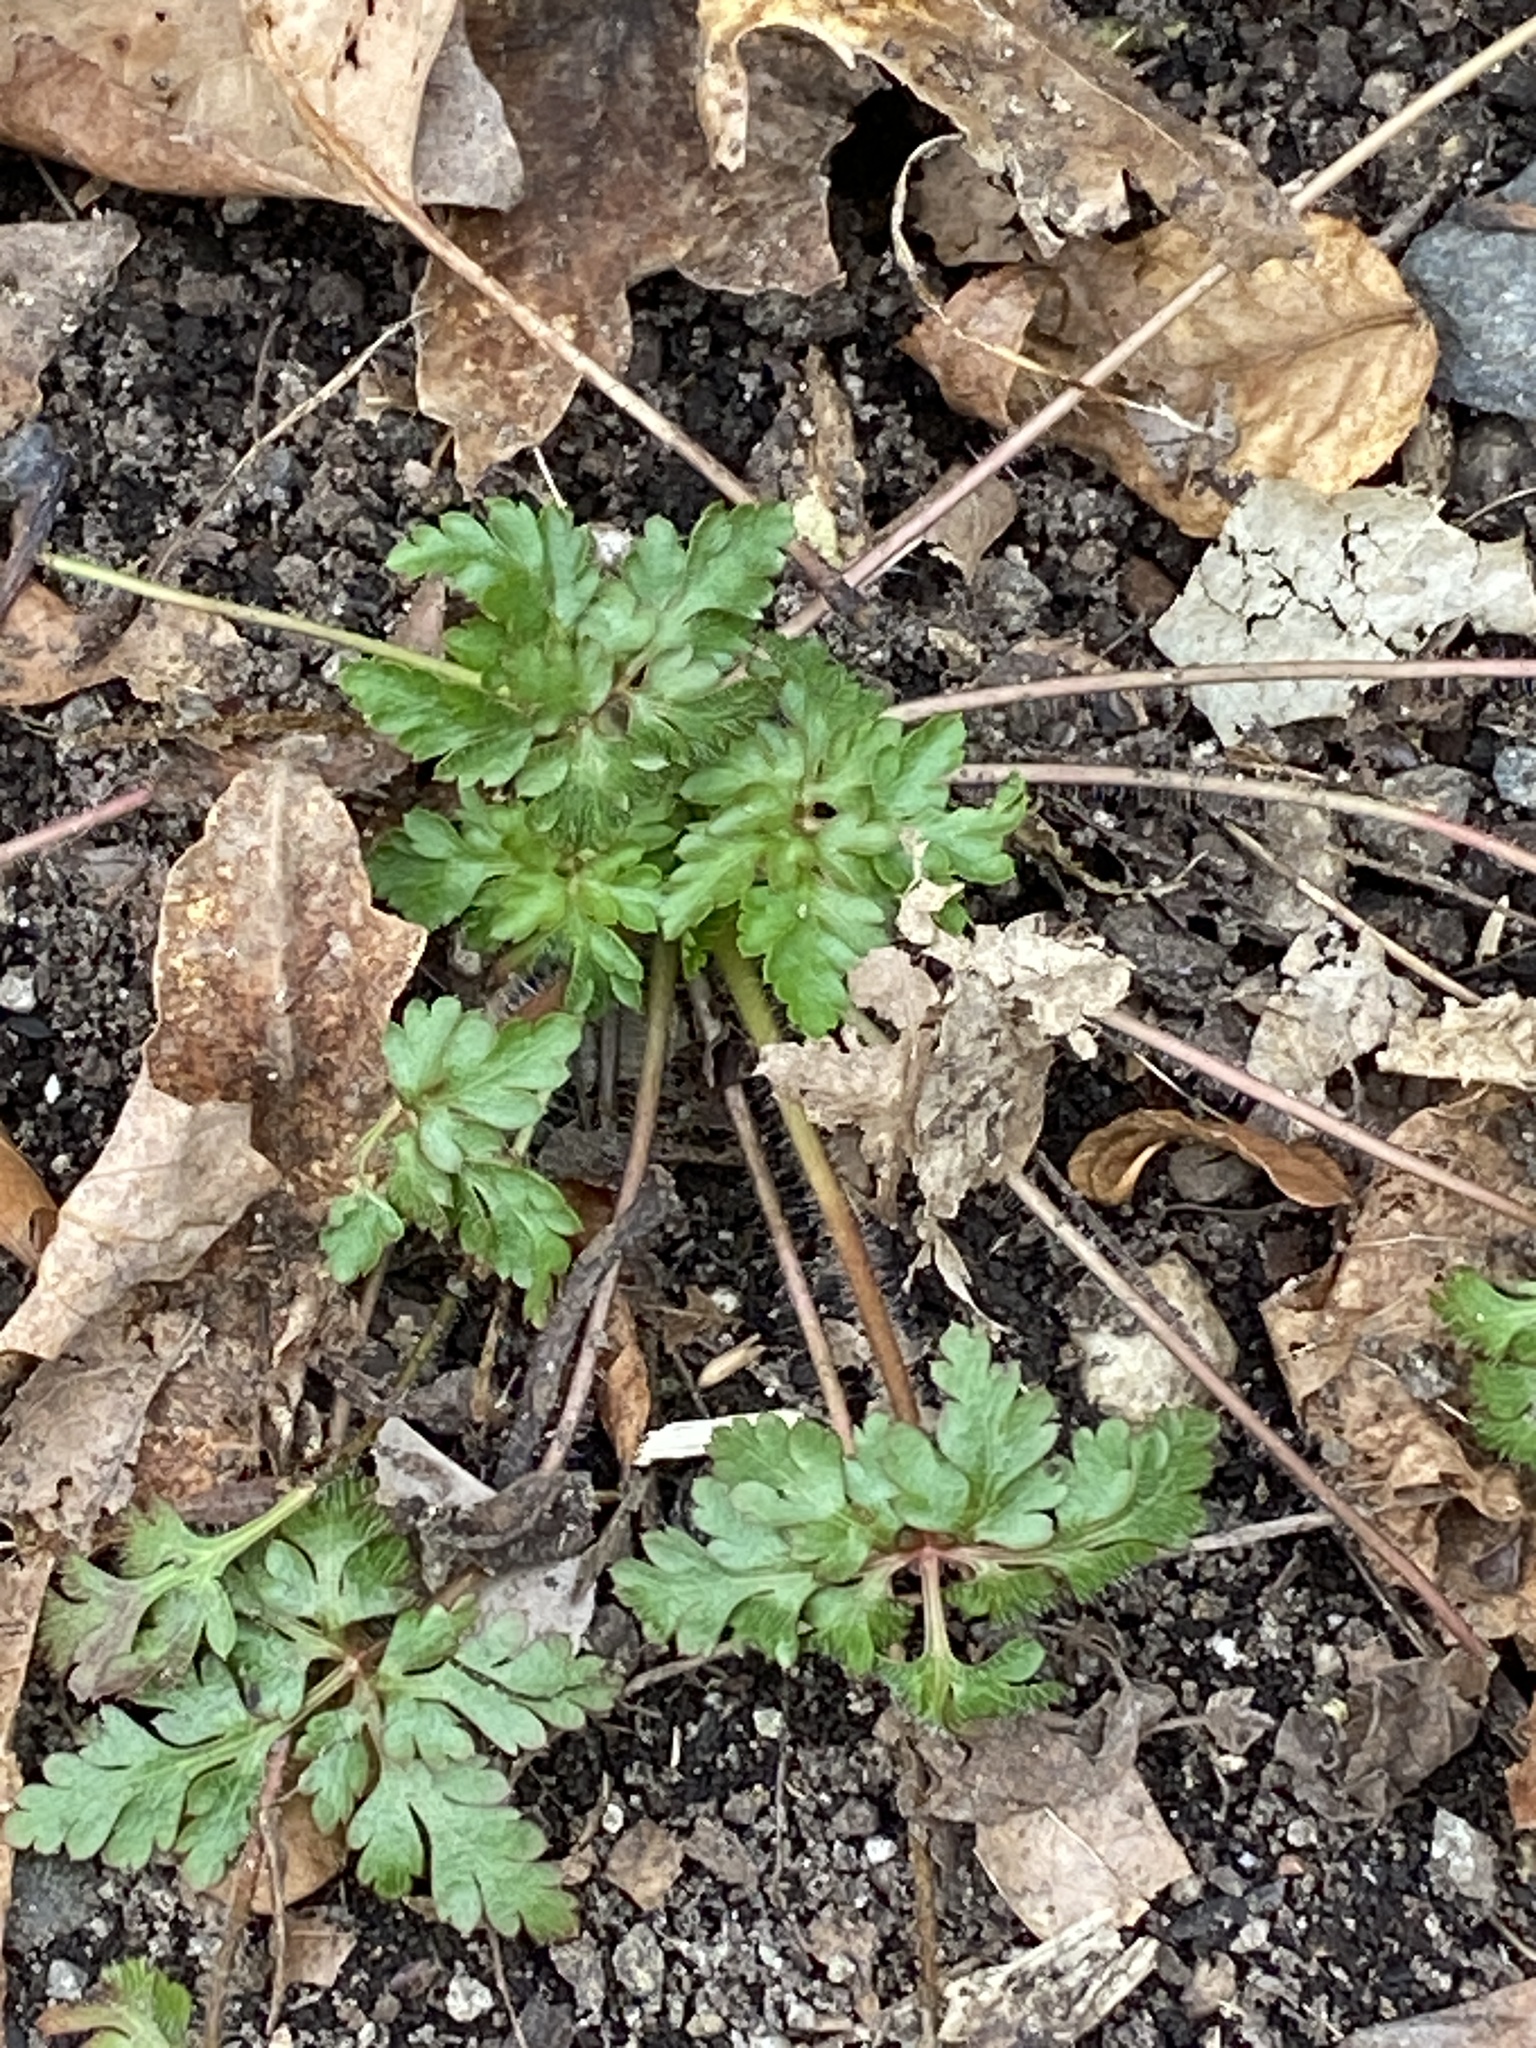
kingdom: Plantae
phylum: Tracheophyta
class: Magnoliopsida
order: Geraniales
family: Geraniaceae
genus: Geranium
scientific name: Geranium robertianum
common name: Herb-robert
